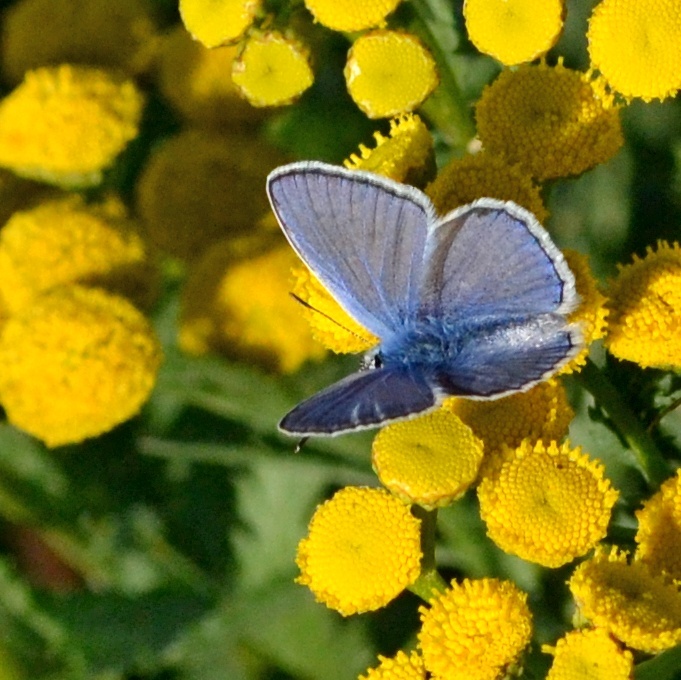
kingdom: Animalia
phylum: Arthropoda
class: Insecta
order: Lepidoptera
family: Lycaenidae
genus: Polyommatus
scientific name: Polyommatus icarus
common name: Common blue
